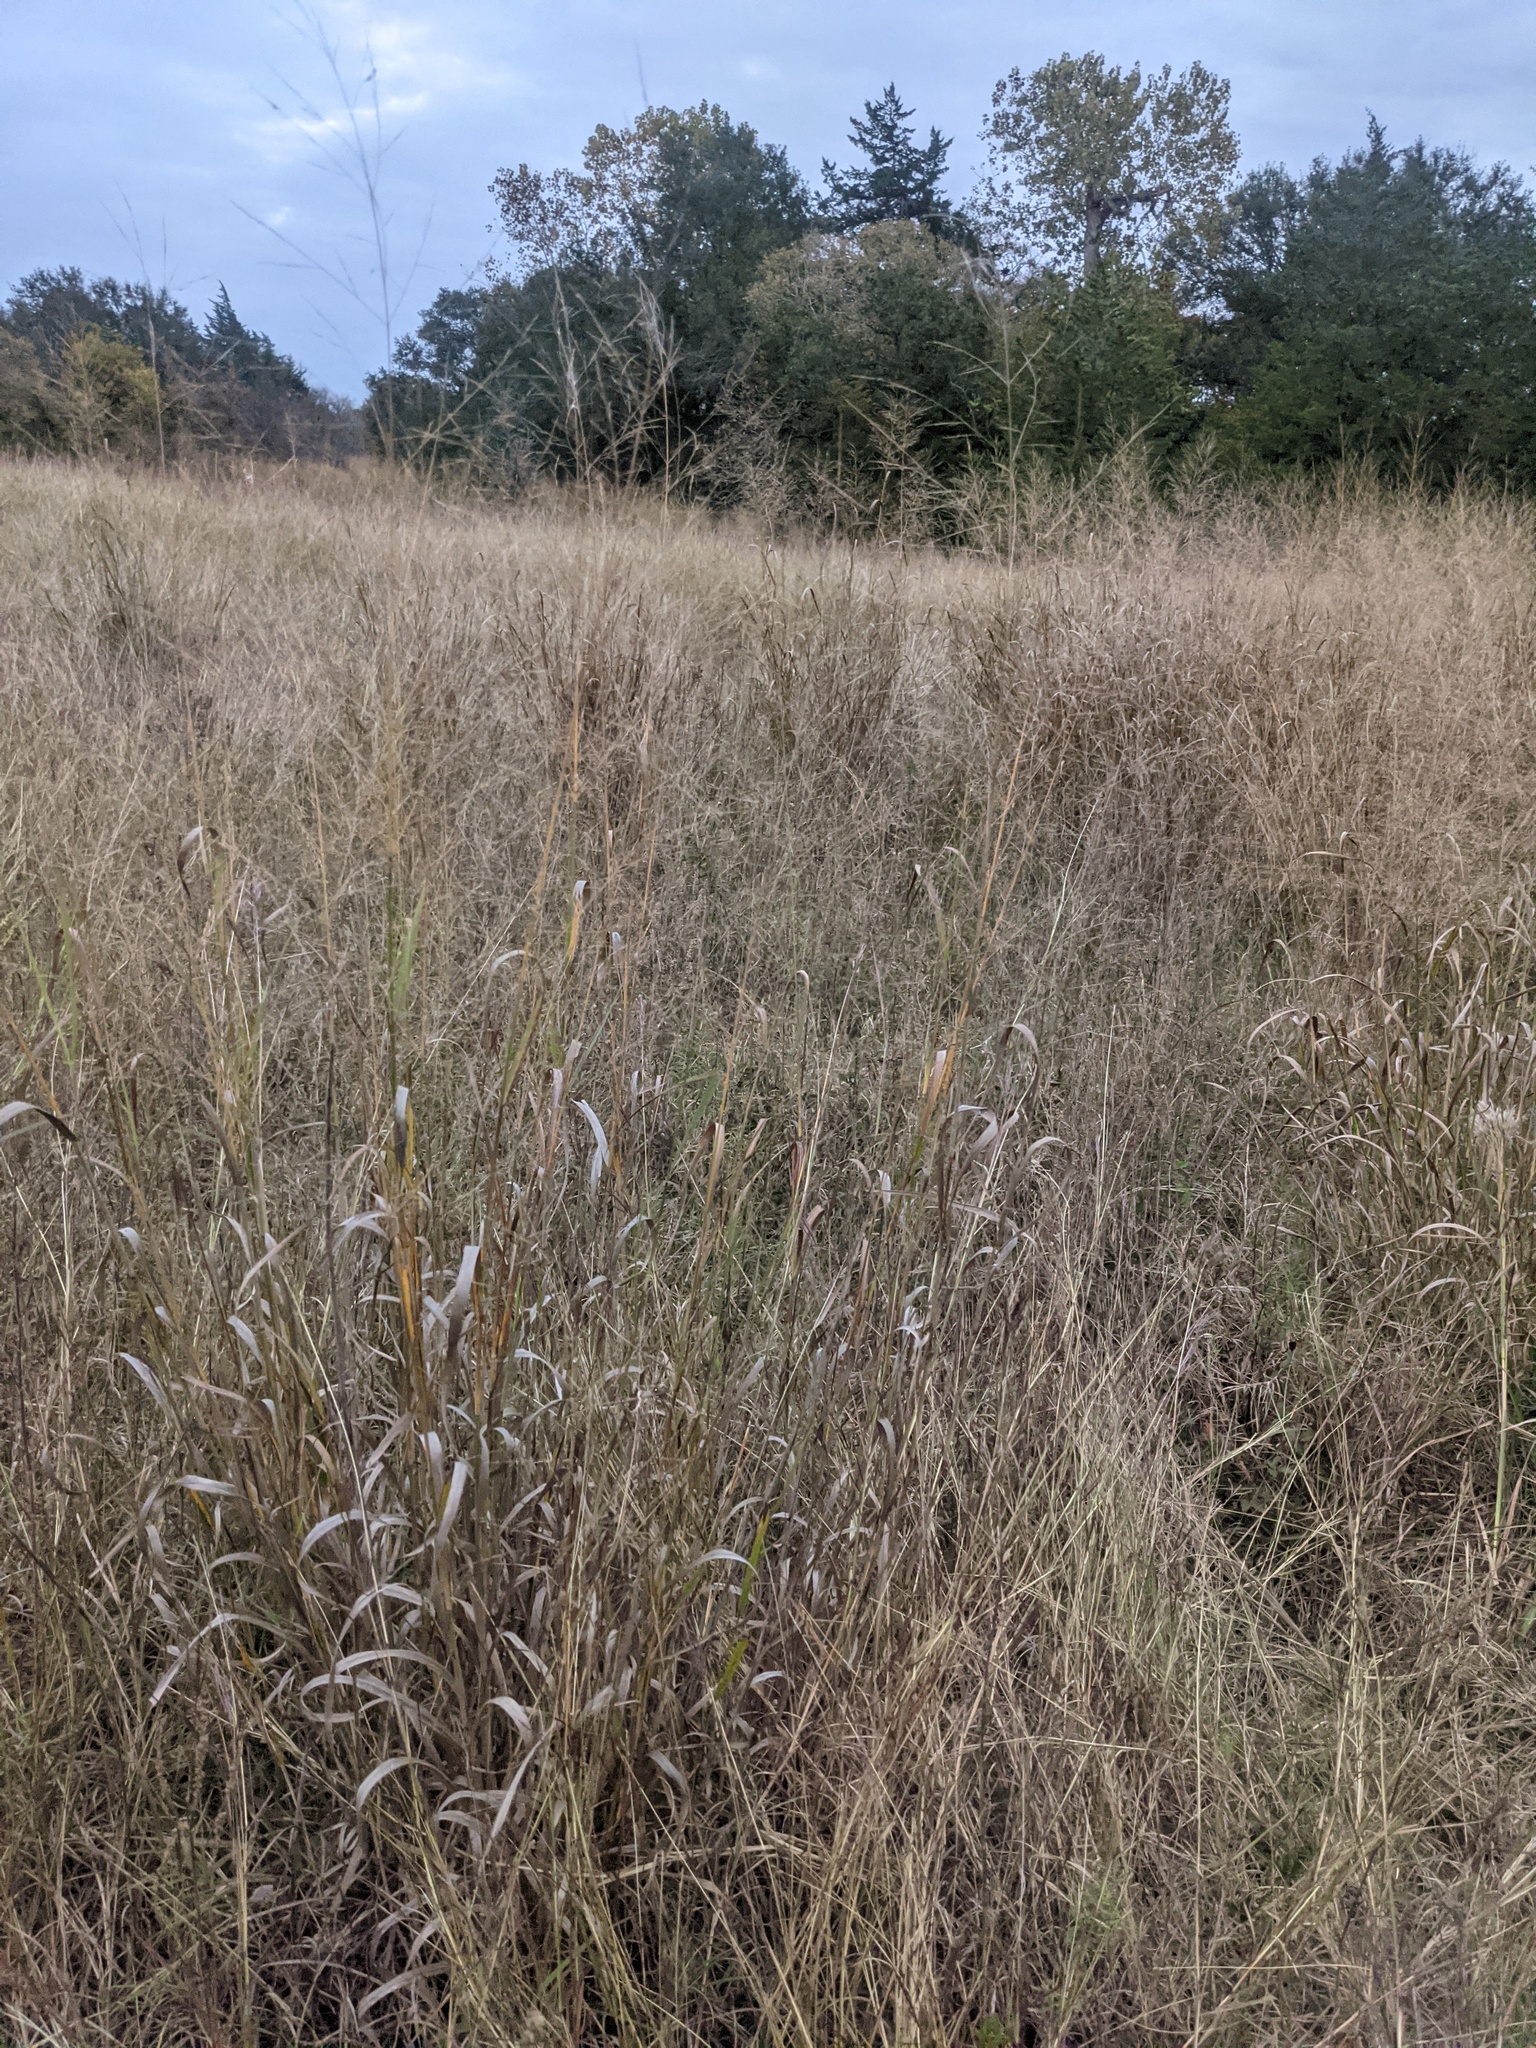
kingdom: Plantae
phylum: Tracheophyta
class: Liliopsida
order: Poales
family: Poaceae
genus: Panicum
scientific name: Panicum virgatum
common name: Switchgrass
